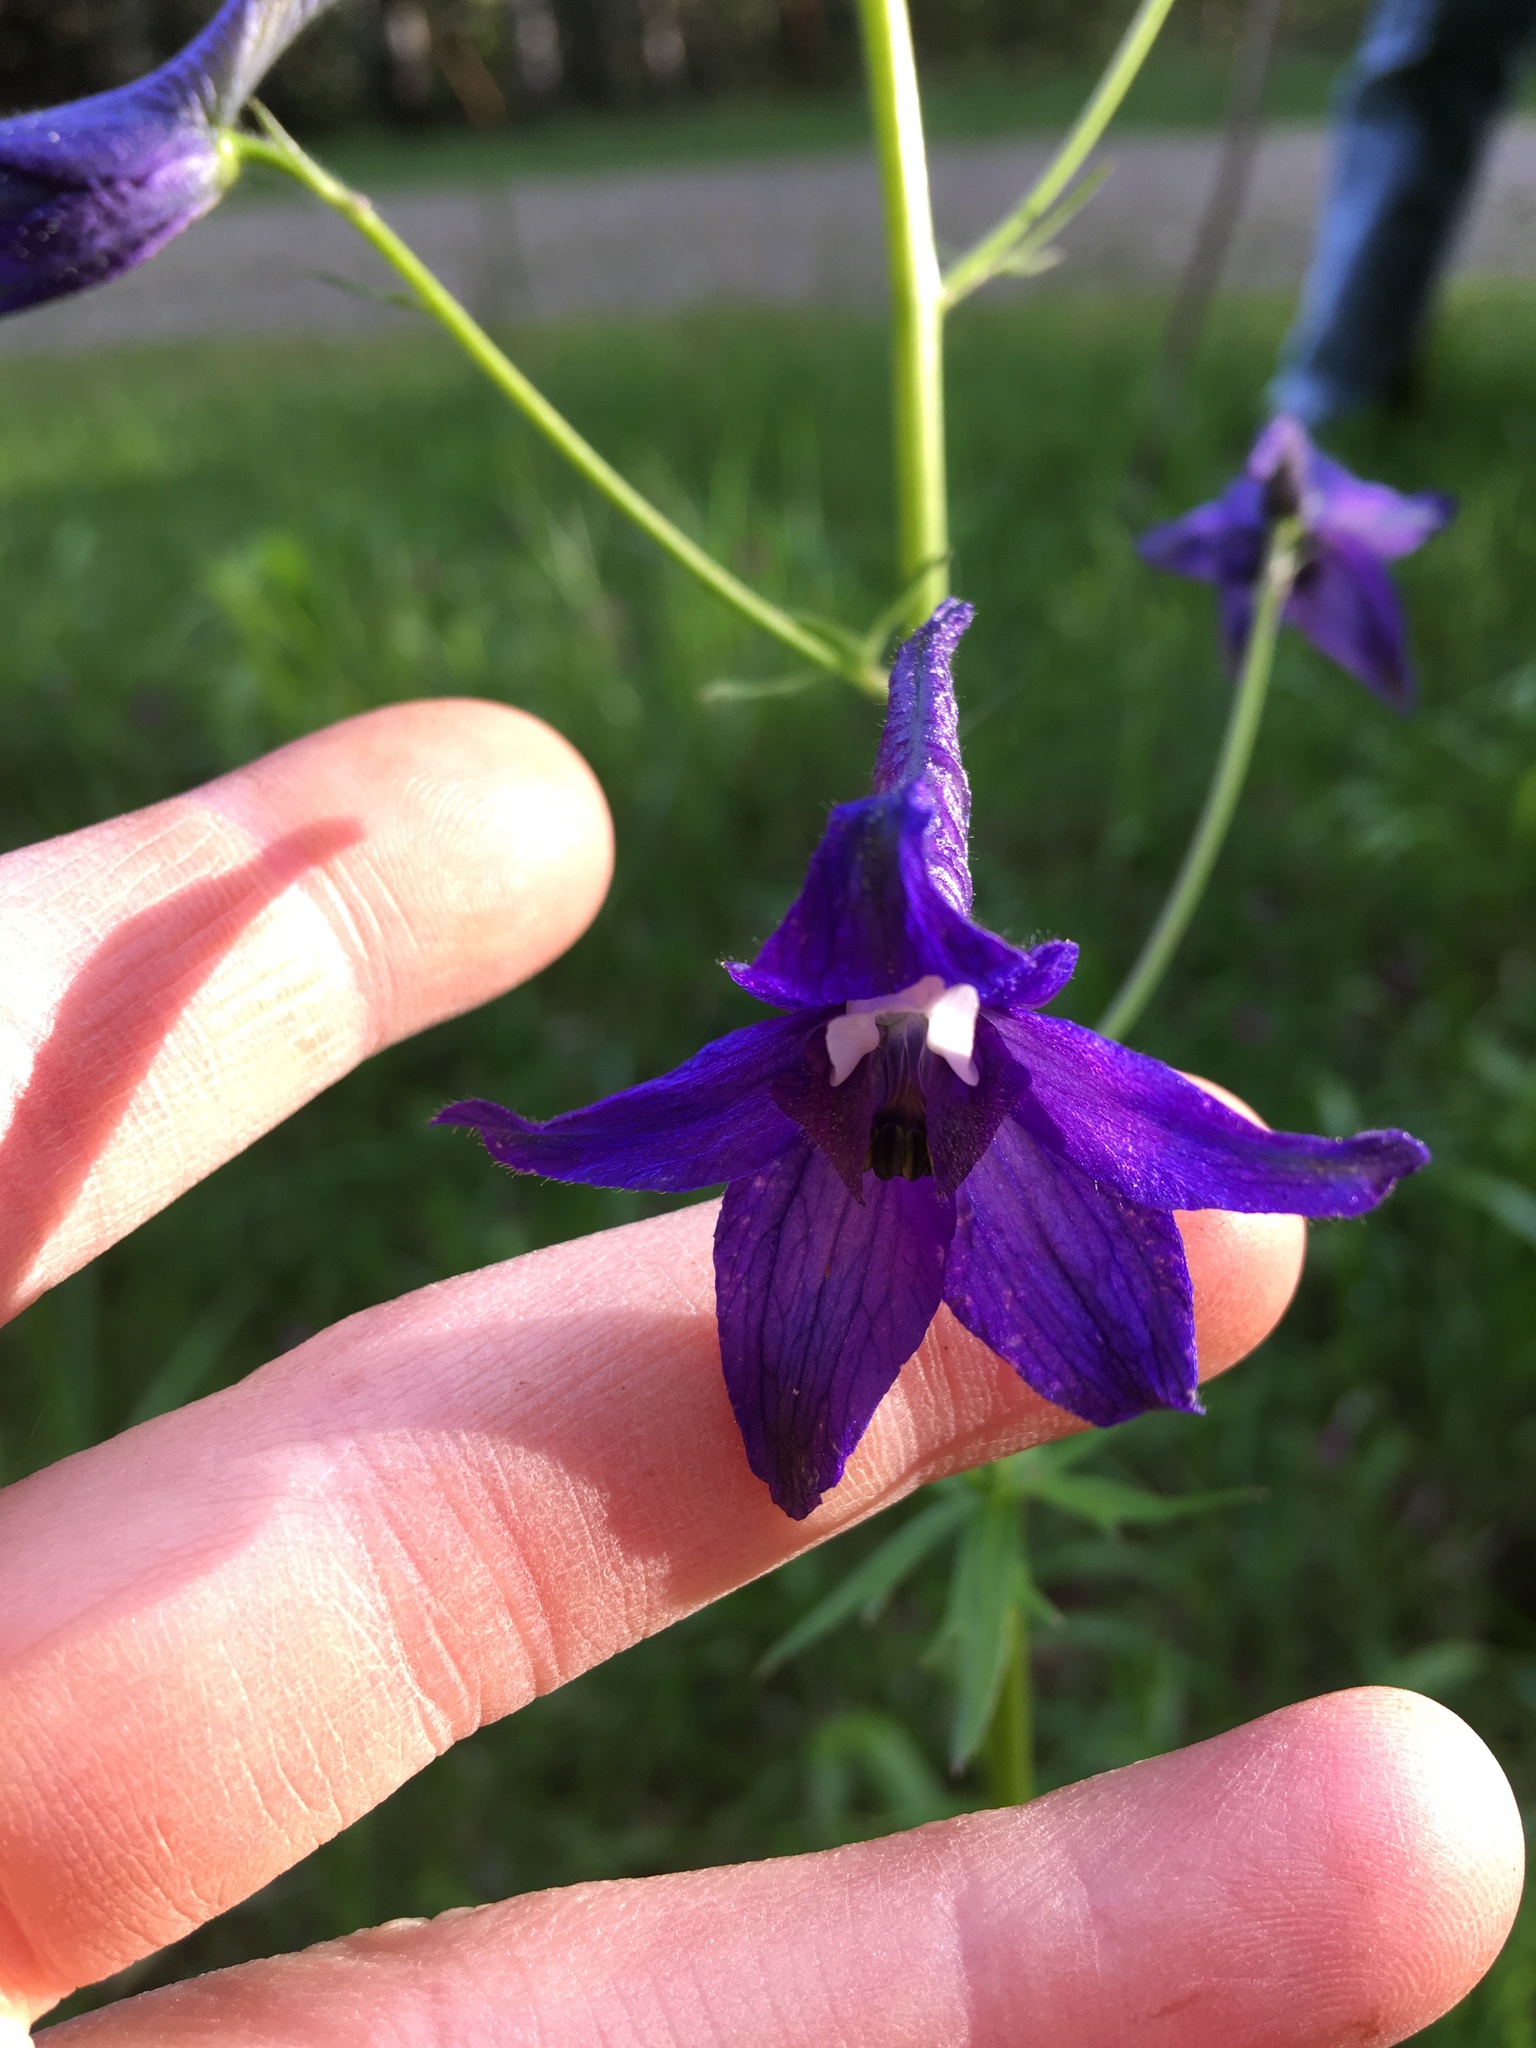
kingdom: Plantae
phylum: Tracheophyta
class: Magnoliopsida
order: Ranunculales
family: Ranunculaceae
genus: Delphinium
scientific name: Delphinium trolliifolium
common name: Cow-poison
